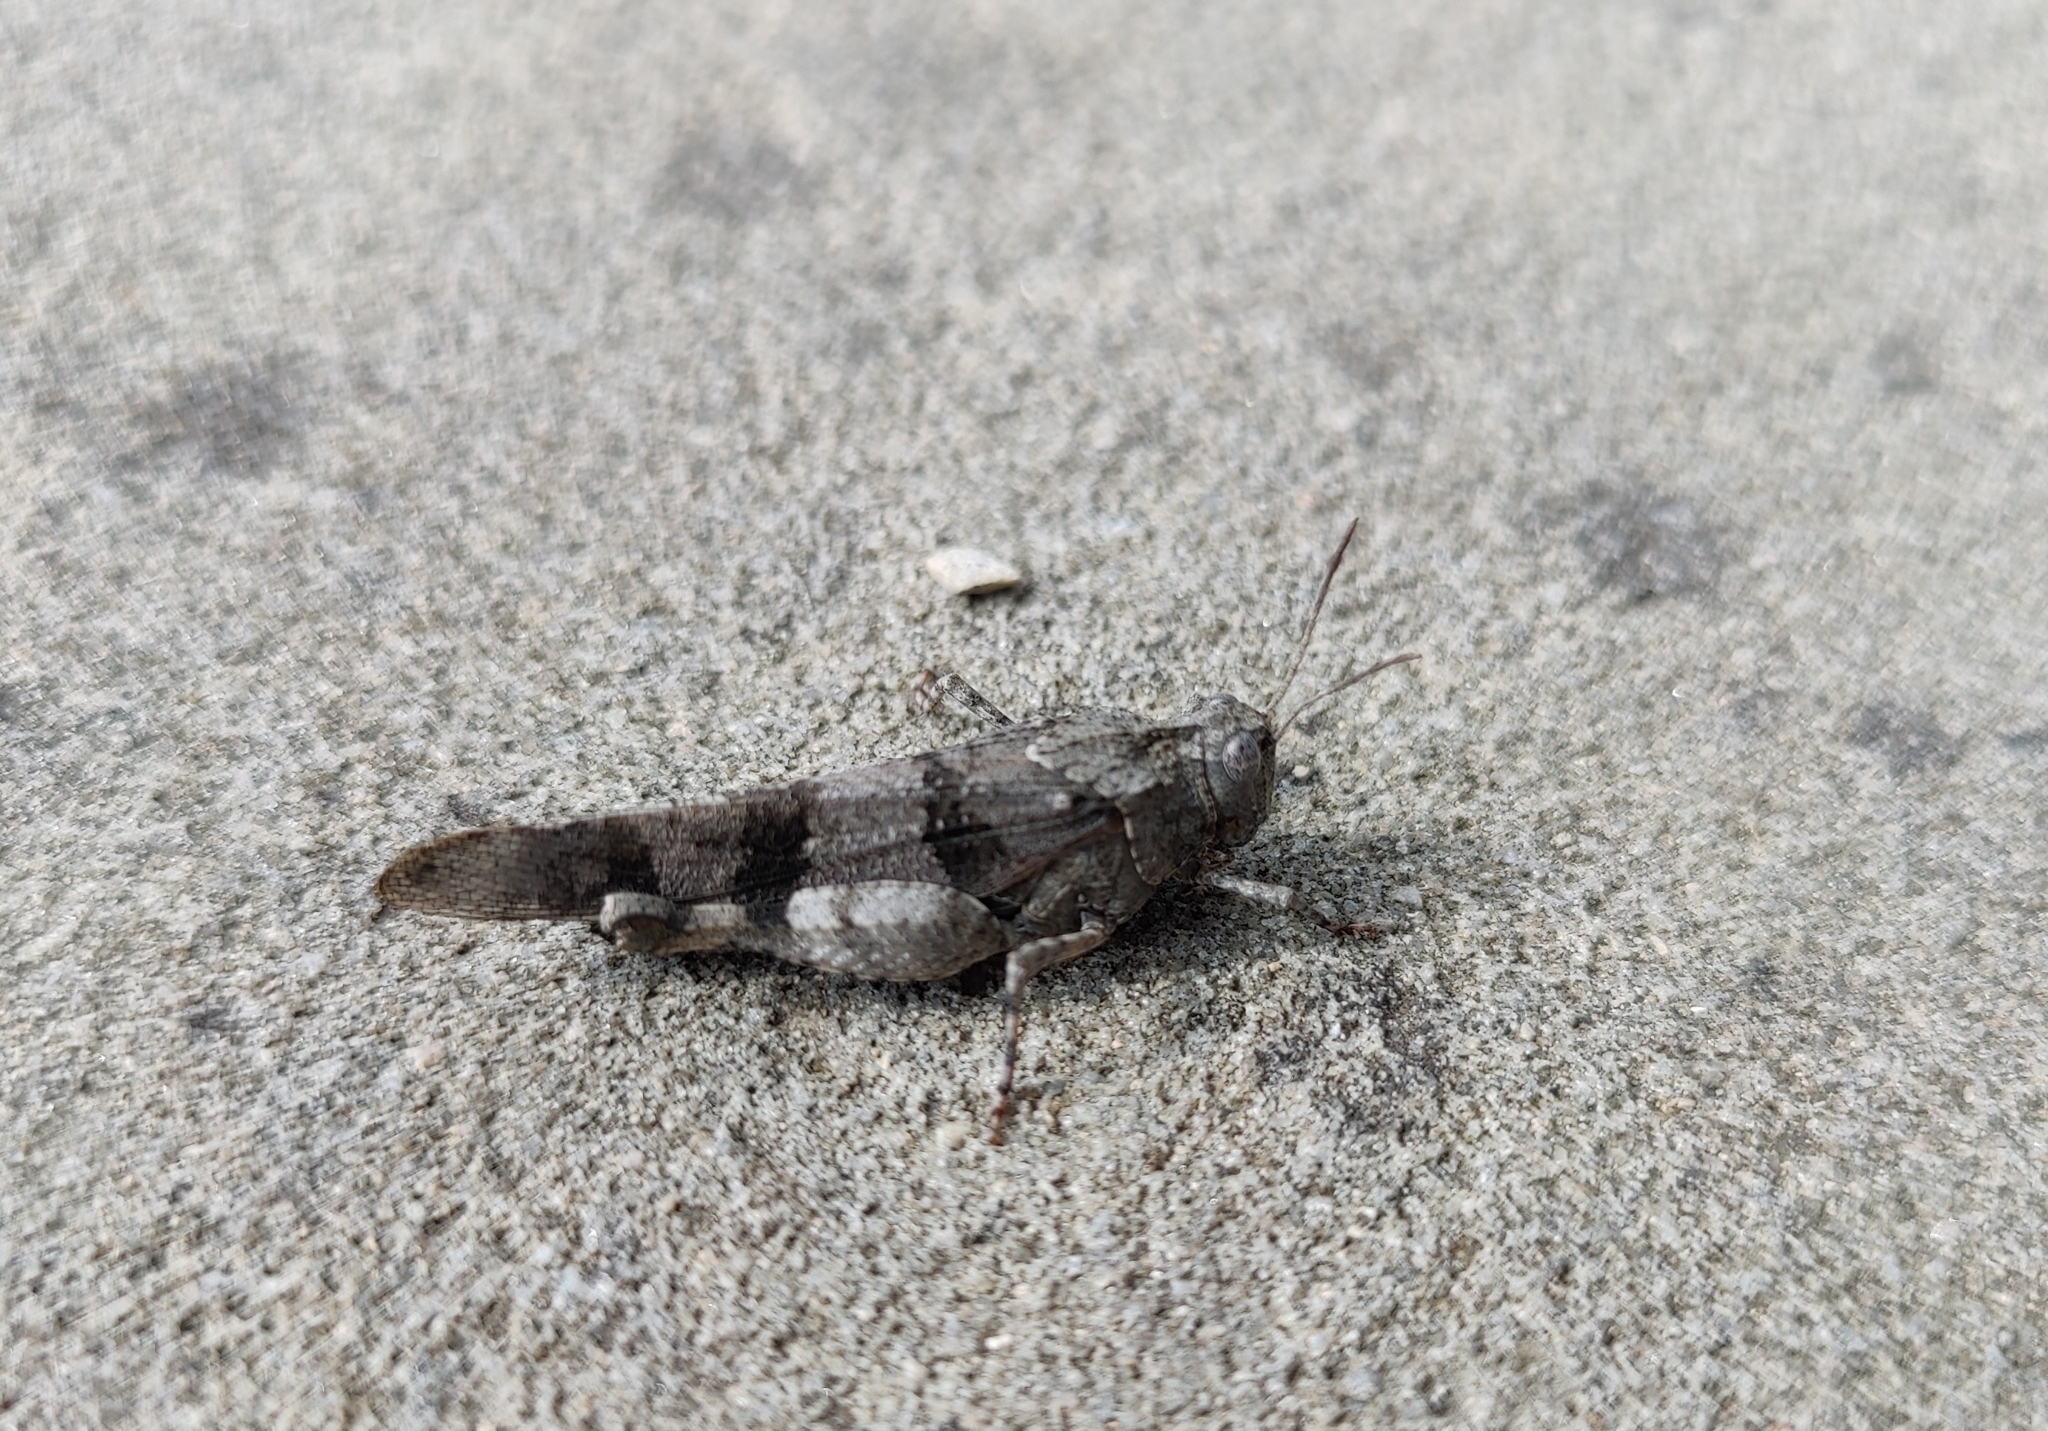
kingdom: Animalia
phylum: Arthropoda
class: Insecta
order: Orthoptera
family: Acrididae
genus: Oedipoda
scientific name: Oedipoda caerulescens
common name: Blue-winged grasshopper
